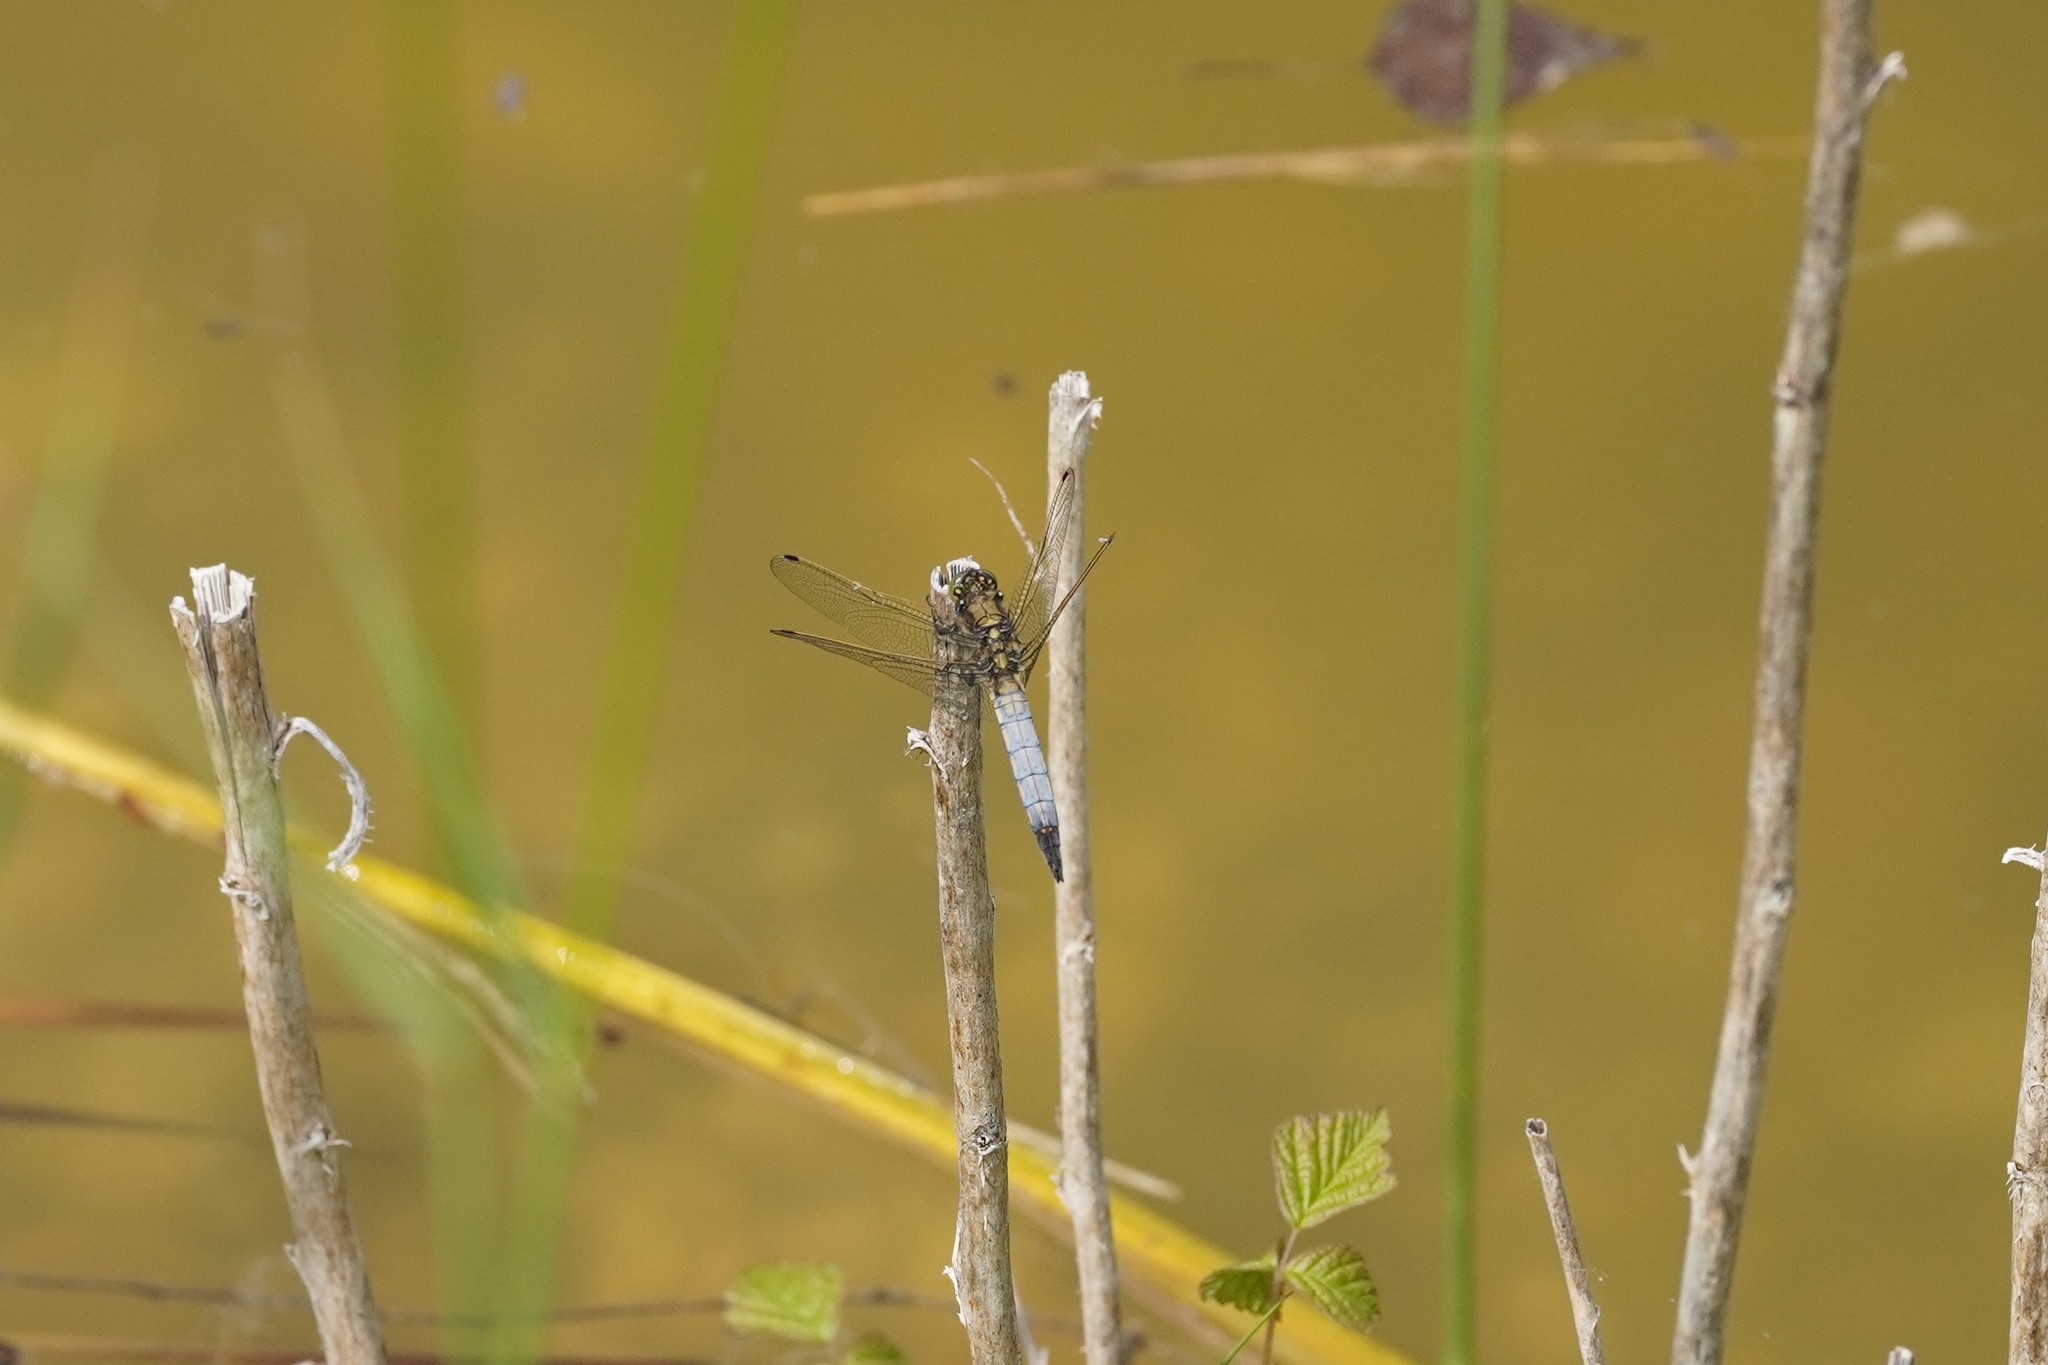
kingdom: Animalia
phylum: Arthropoda
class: Insecta
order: Odonata
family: Libellulidae
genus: Orthetrum
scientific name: Orthetrum cancellatum
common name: Black-tailed skimmer
